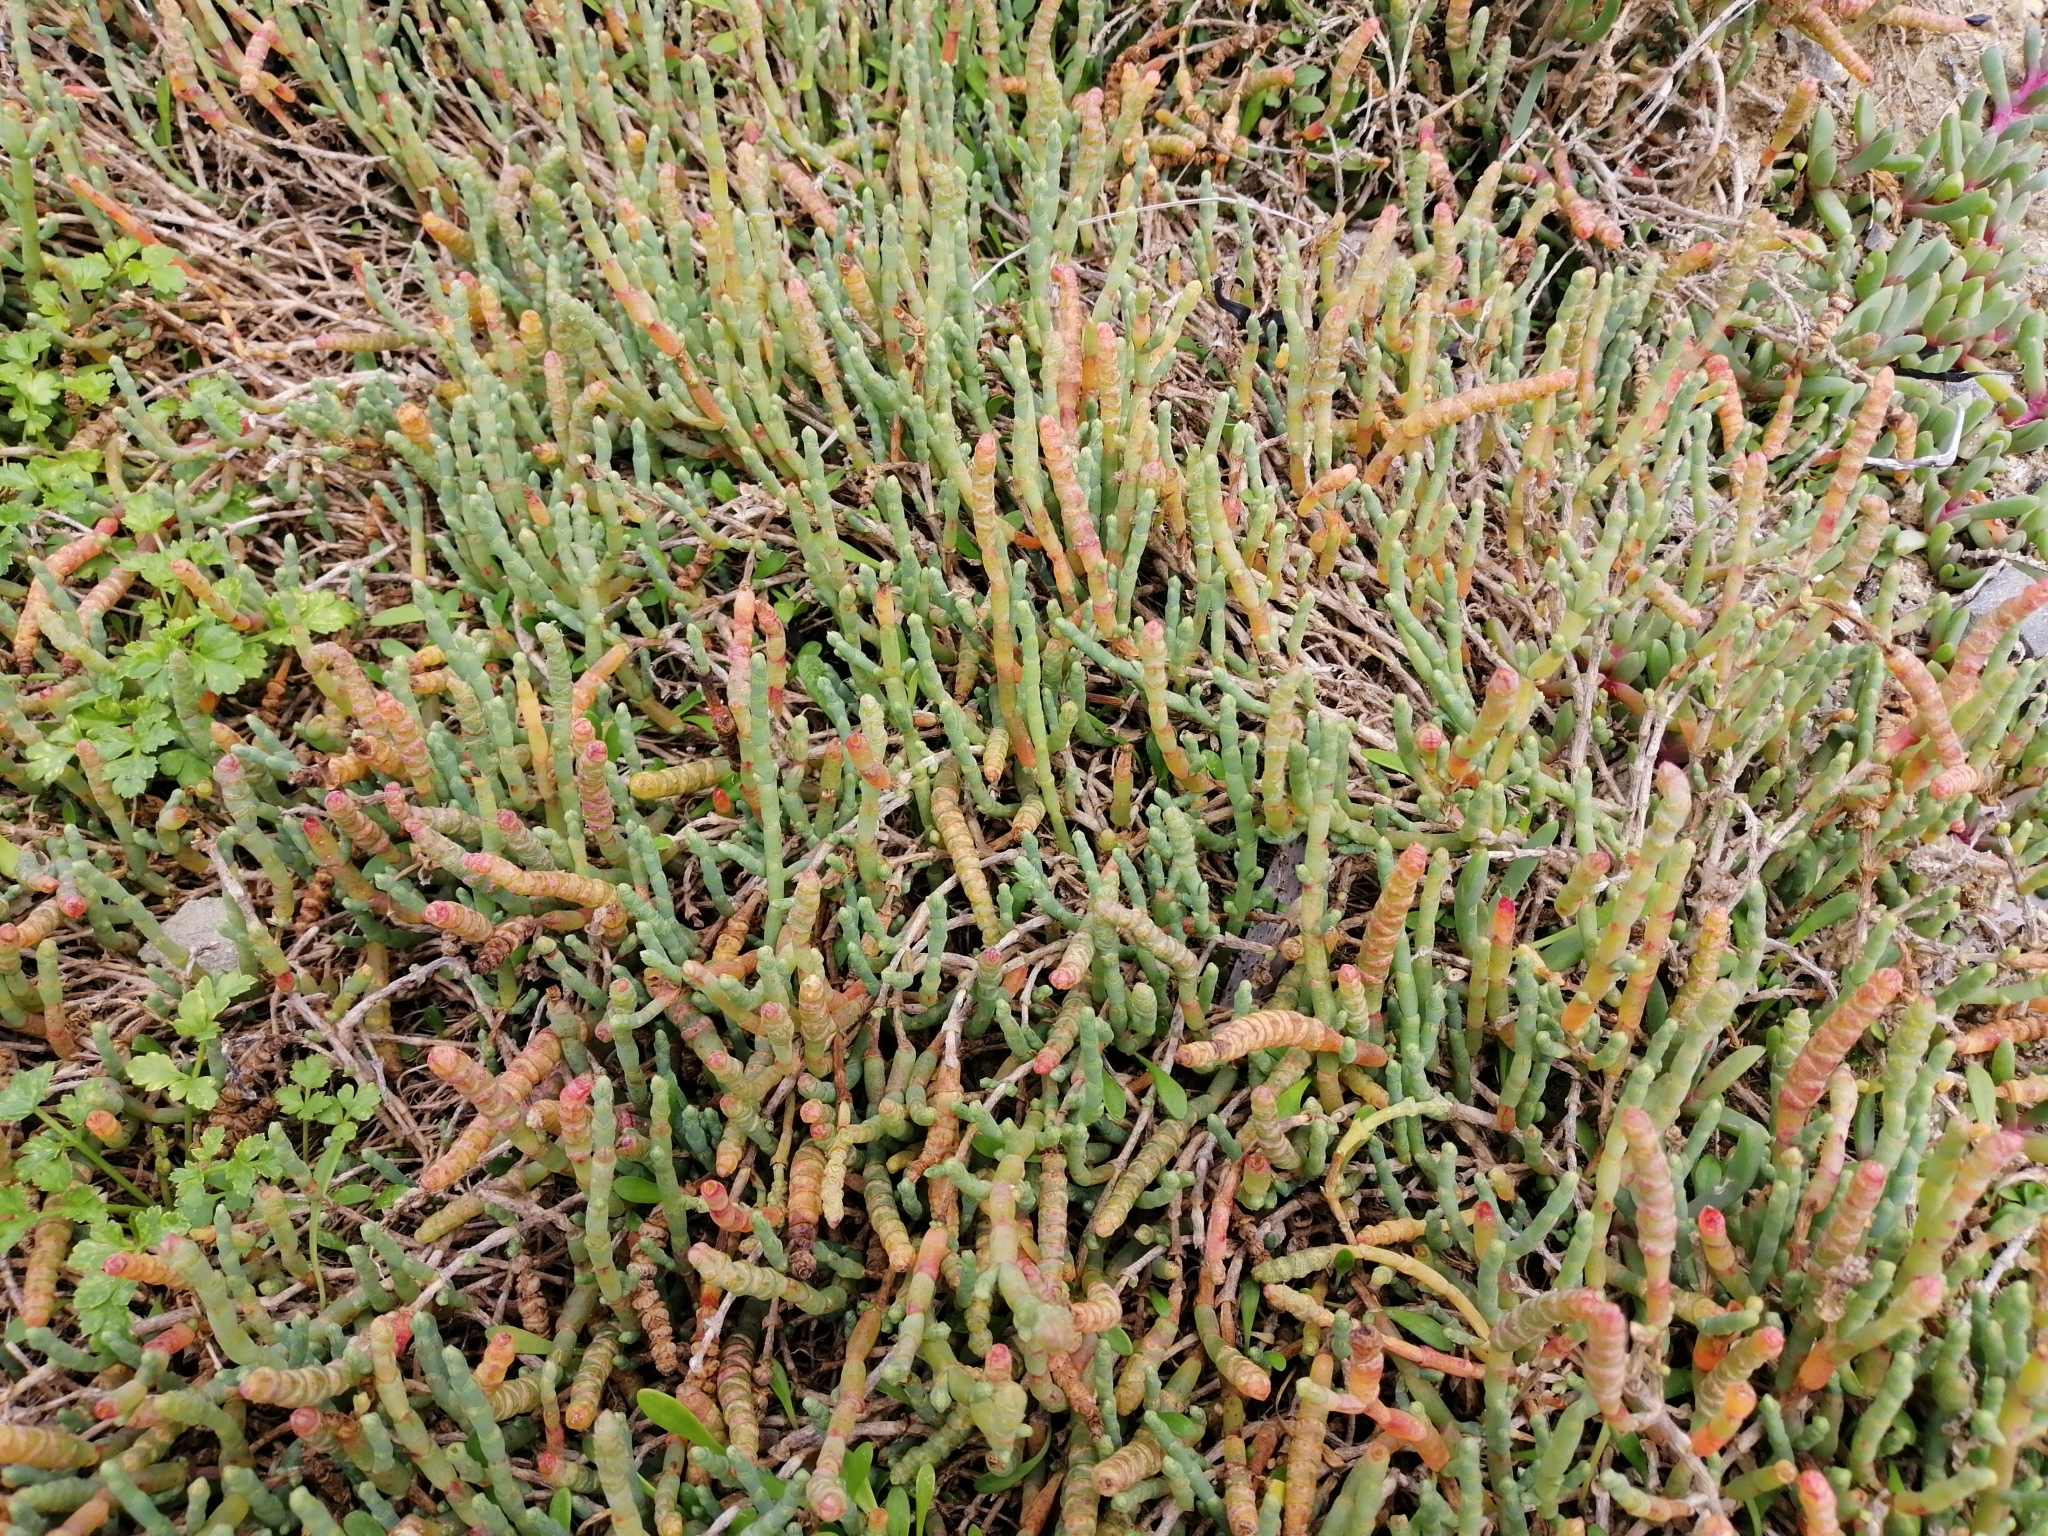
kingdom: Plantae
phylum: Tracheophyta
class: Magnoliopsida
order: Caryophyllales
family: Amaranthaceae
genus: Salicornia
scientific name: Salicornia quinqueflora
